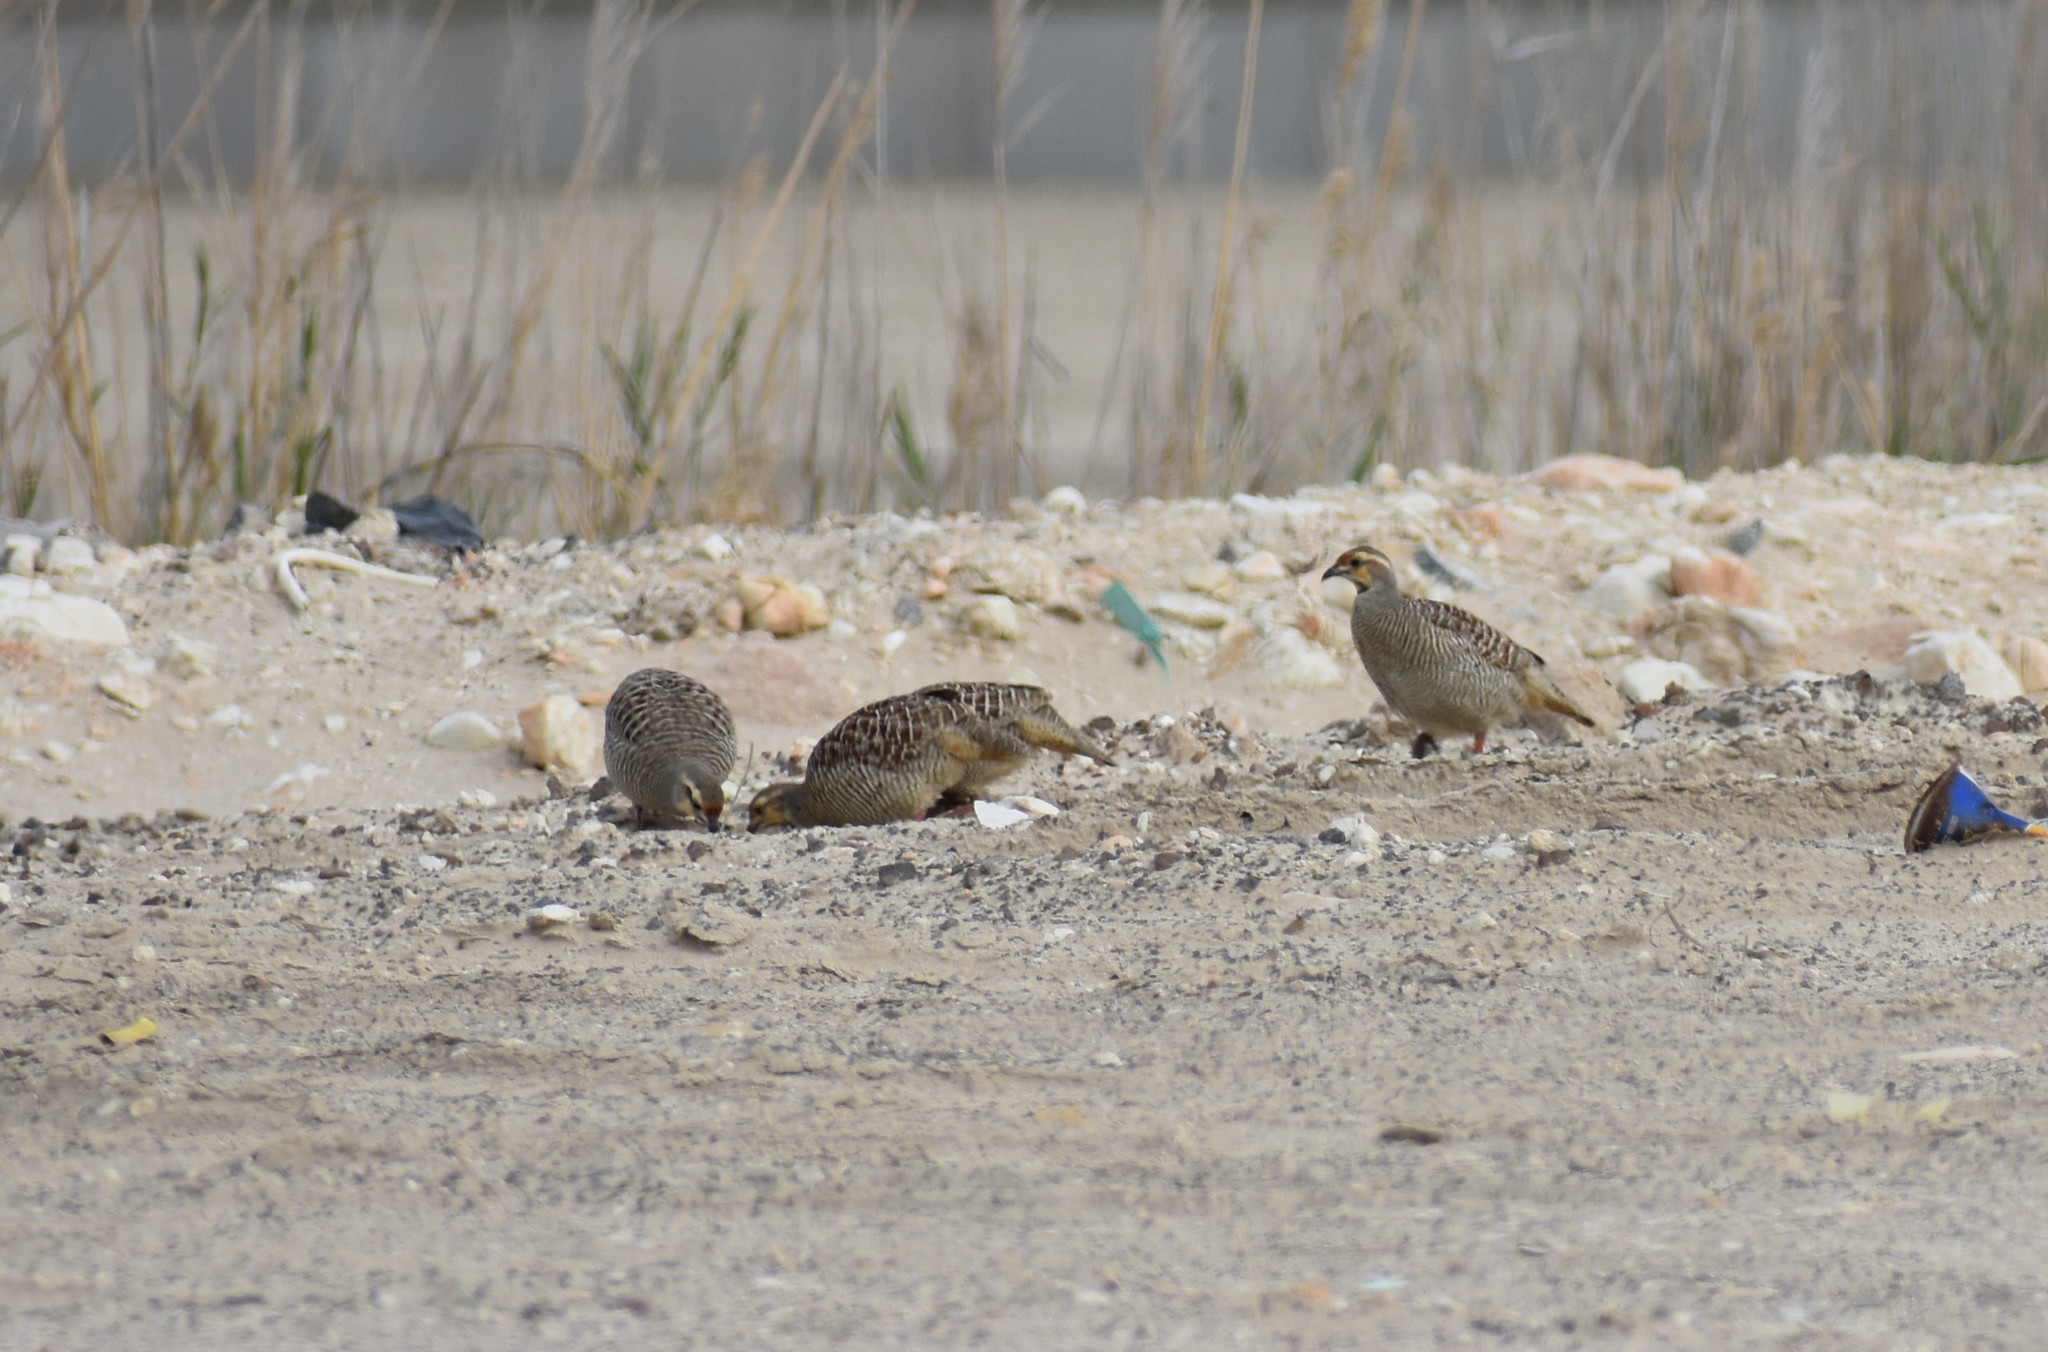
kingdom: Animalia
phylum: Chordata
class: Aves
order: Galliformes
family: Phasianidae
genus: Ortygornis
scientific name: Ortygornis pondicerianus
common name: Grey francolin
